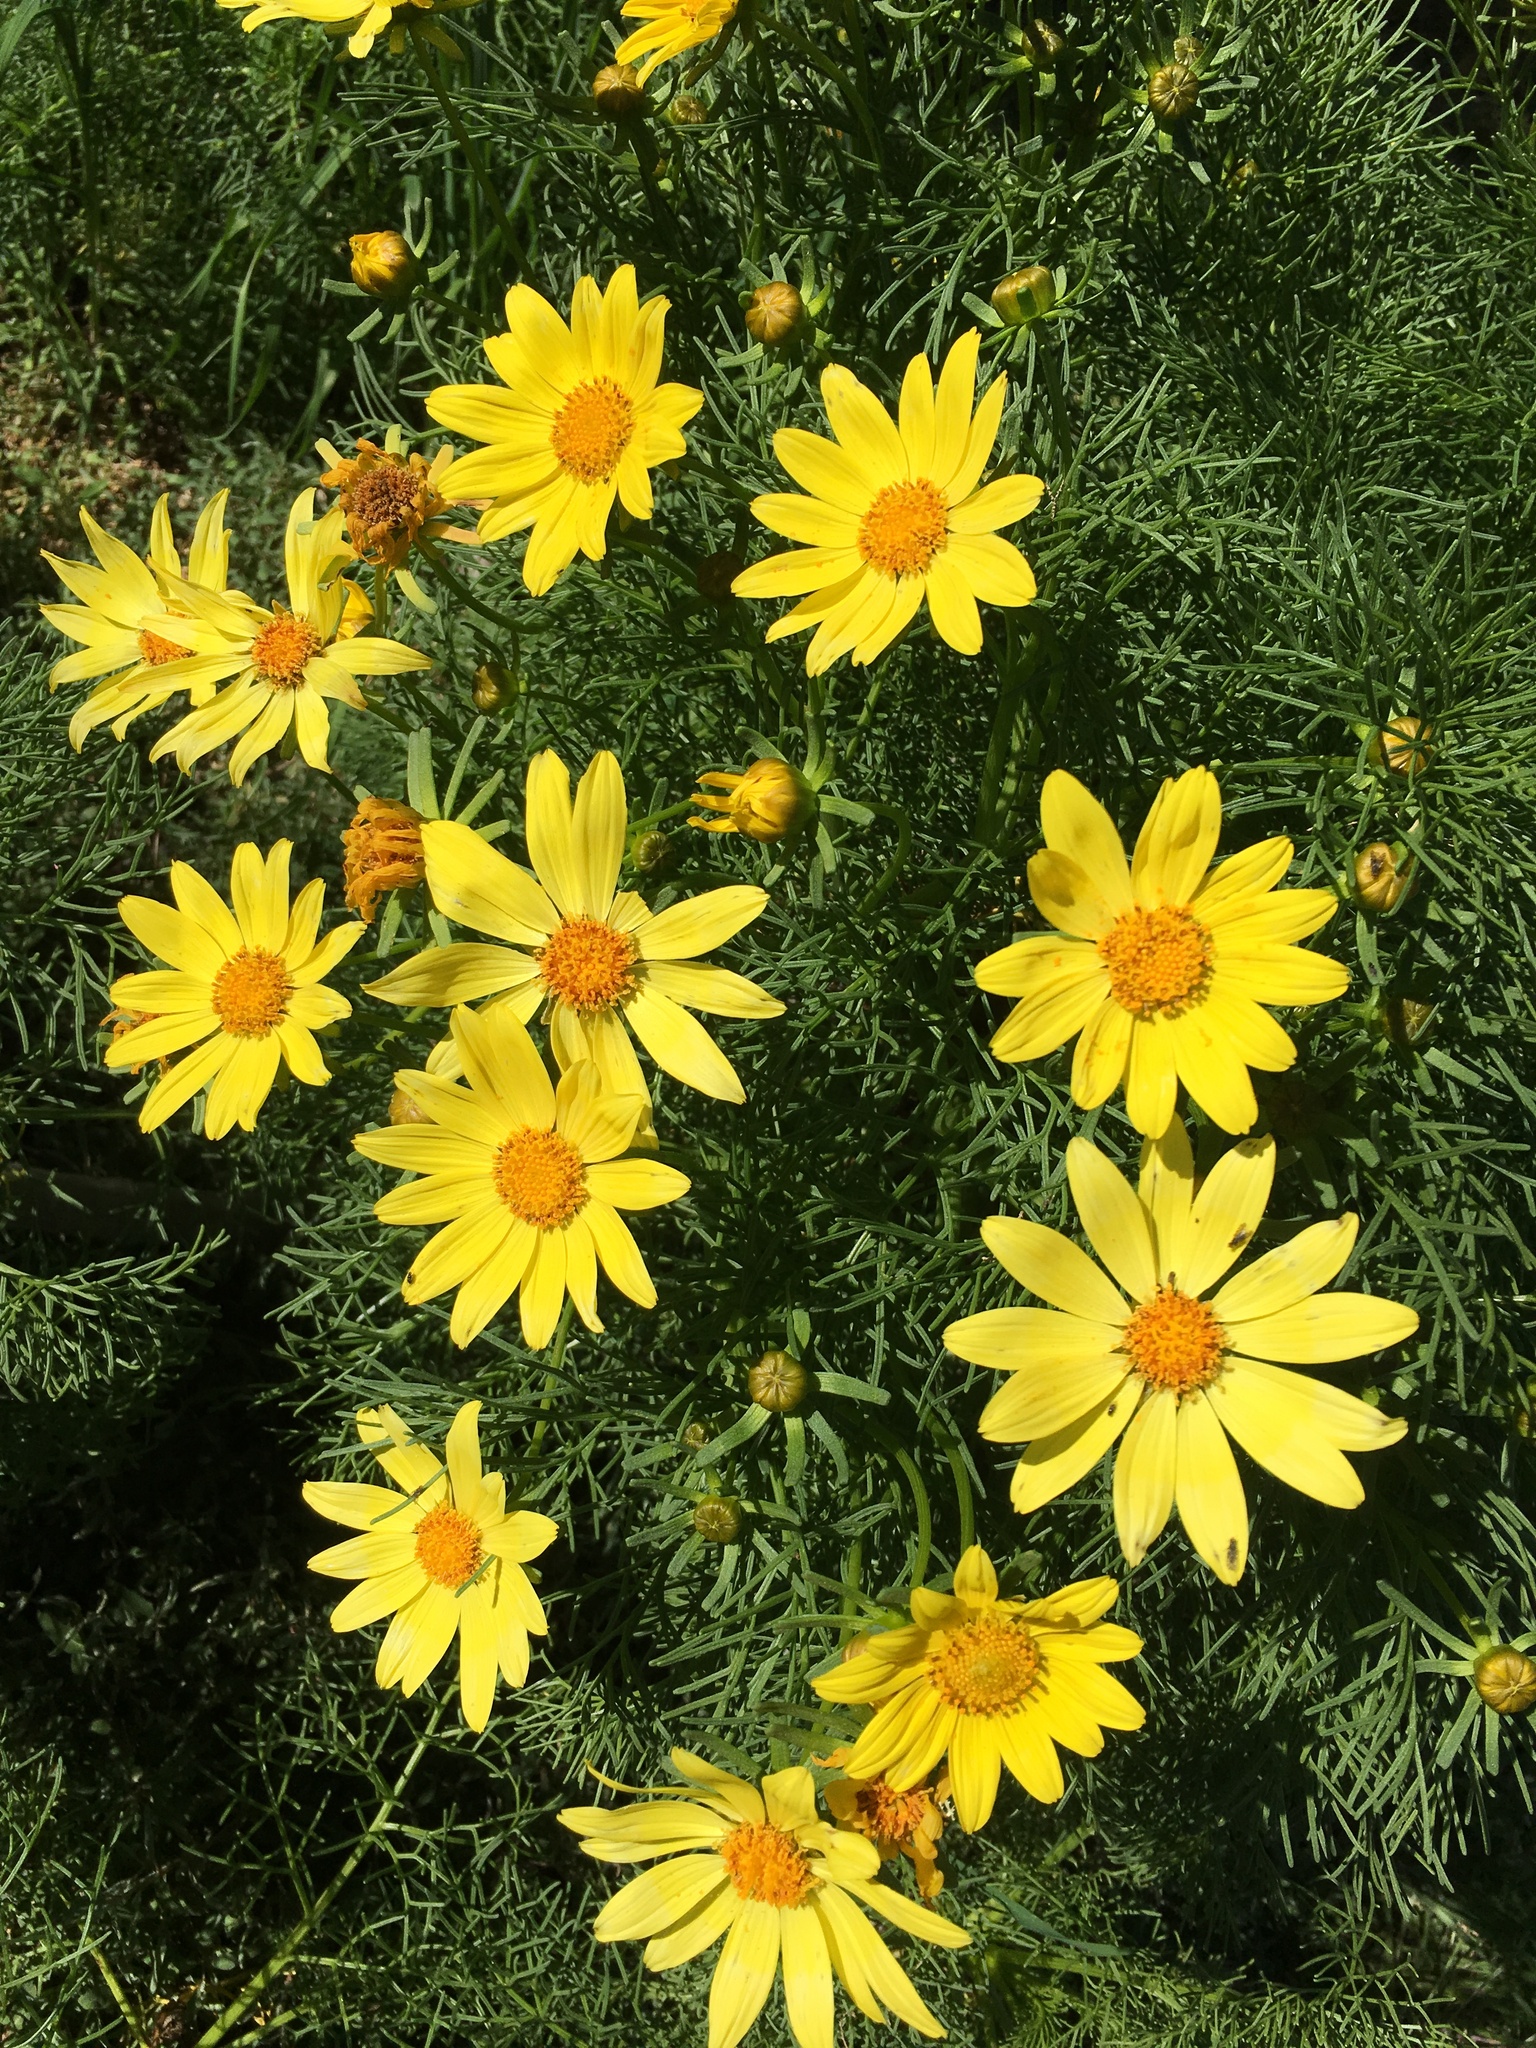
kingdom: Plantae
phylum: Tracheophyta
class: Magnoliopsida
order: Asterales
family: Asteraceae
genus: Coreopsis
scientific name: Coreopsis gigantea
